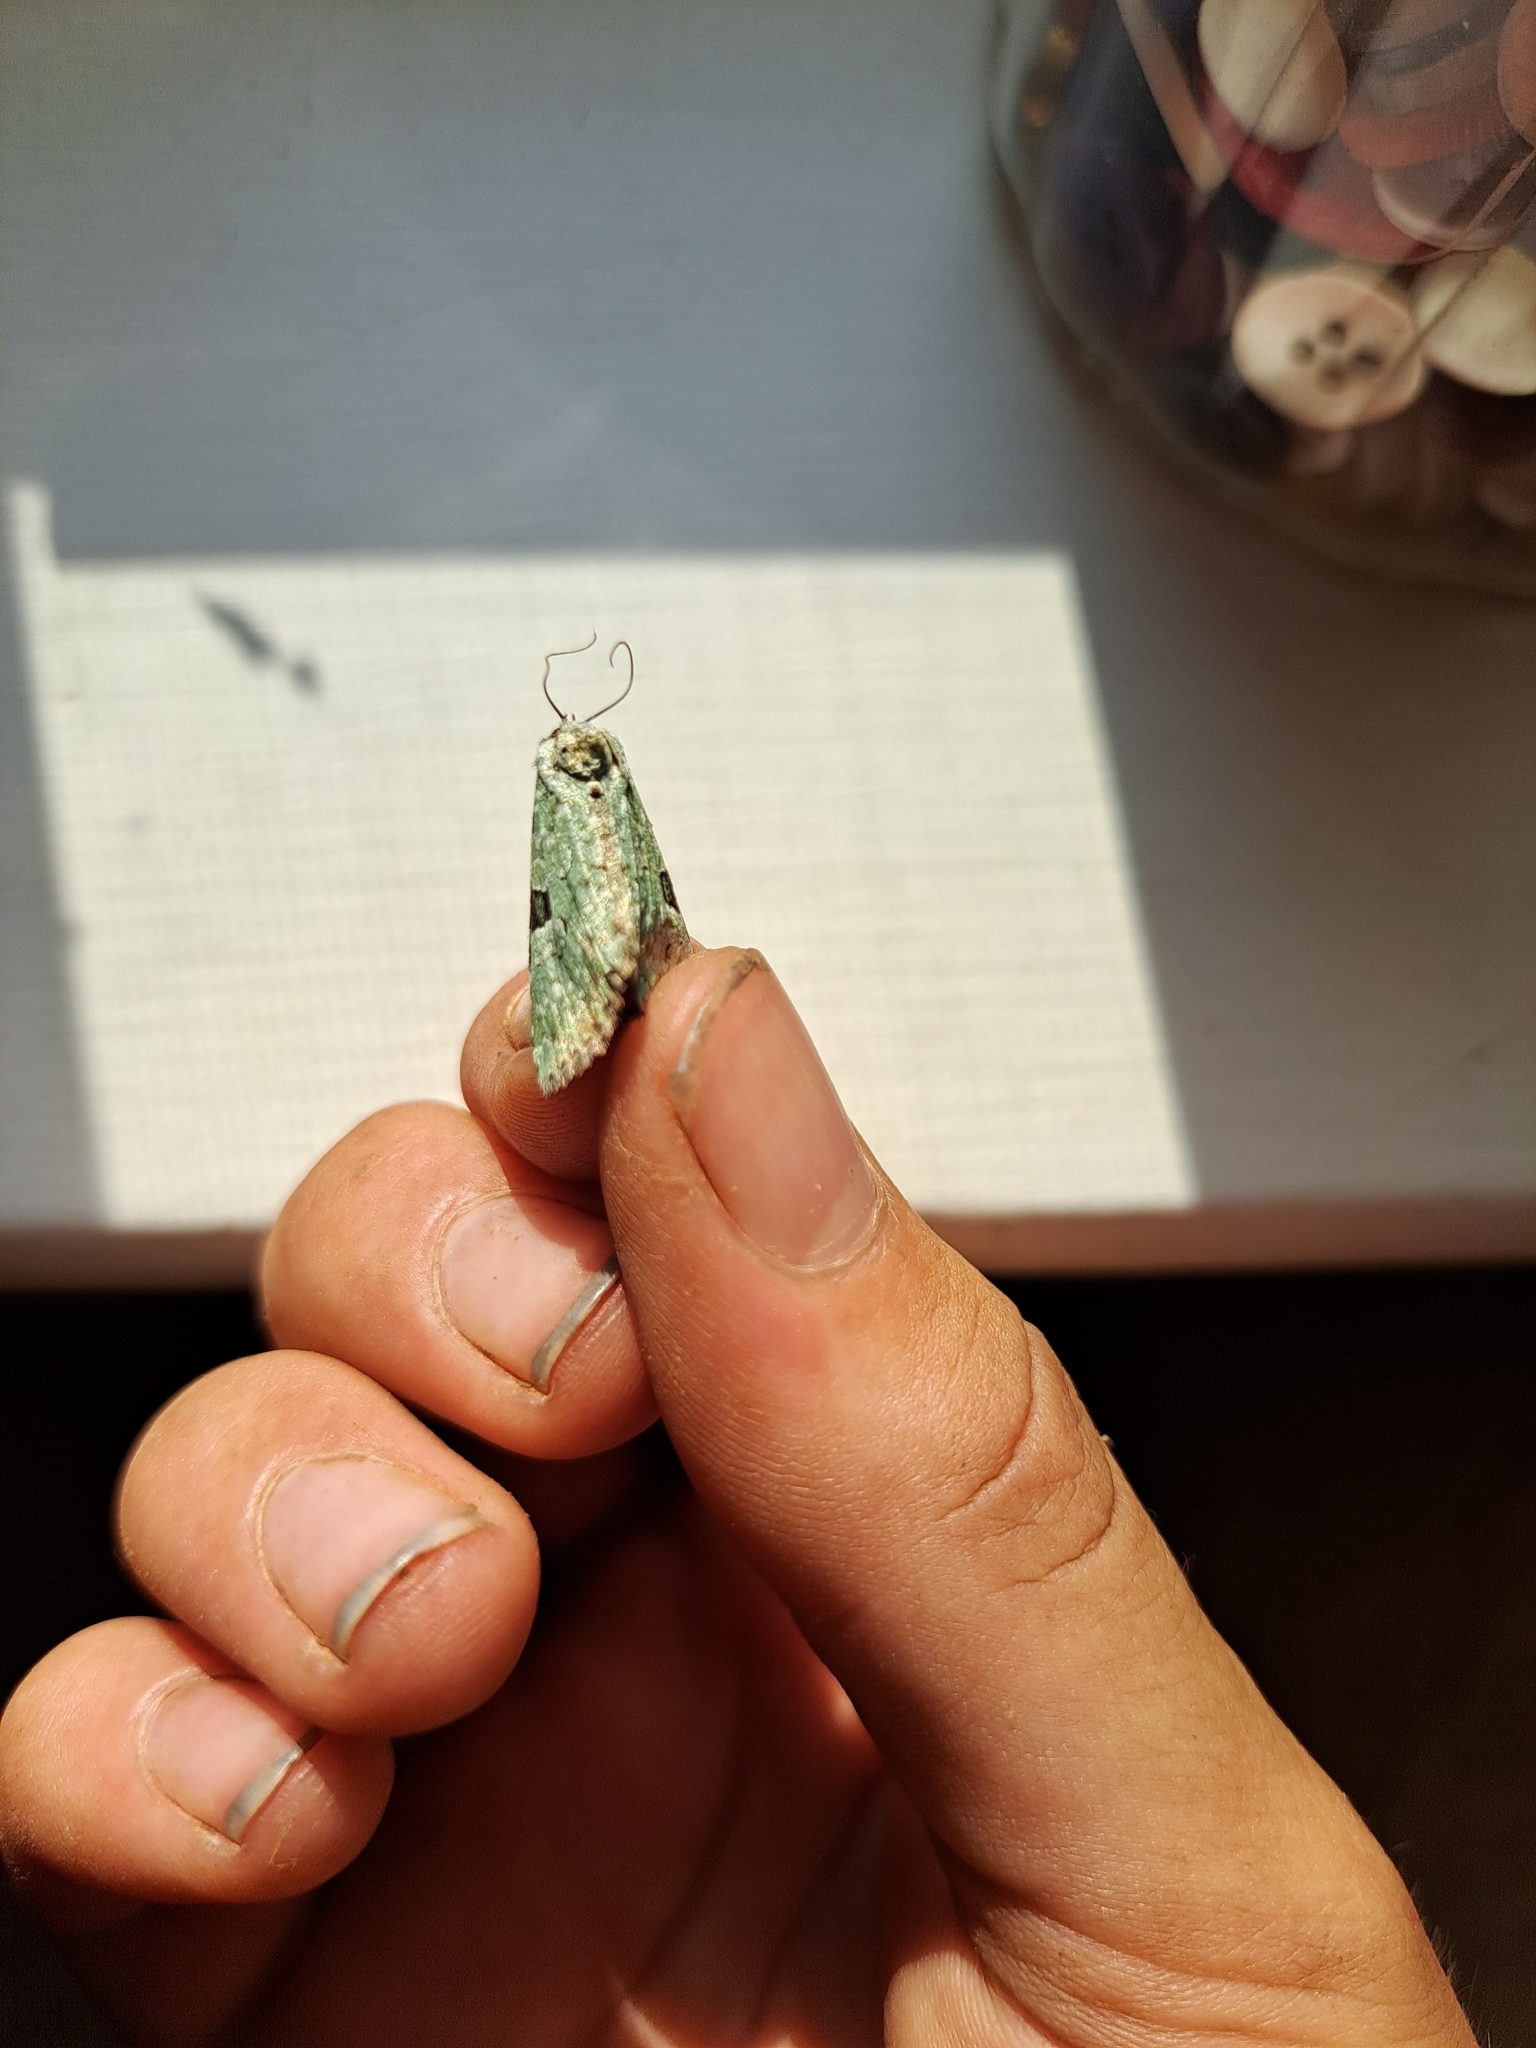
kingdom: Animalia
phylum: Arthropoda
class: Insecta
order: Lepidoptera
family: Noctuidae
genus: Leuconycta
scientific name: Leuconycta diphteroides
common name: Green leuconycta moth
